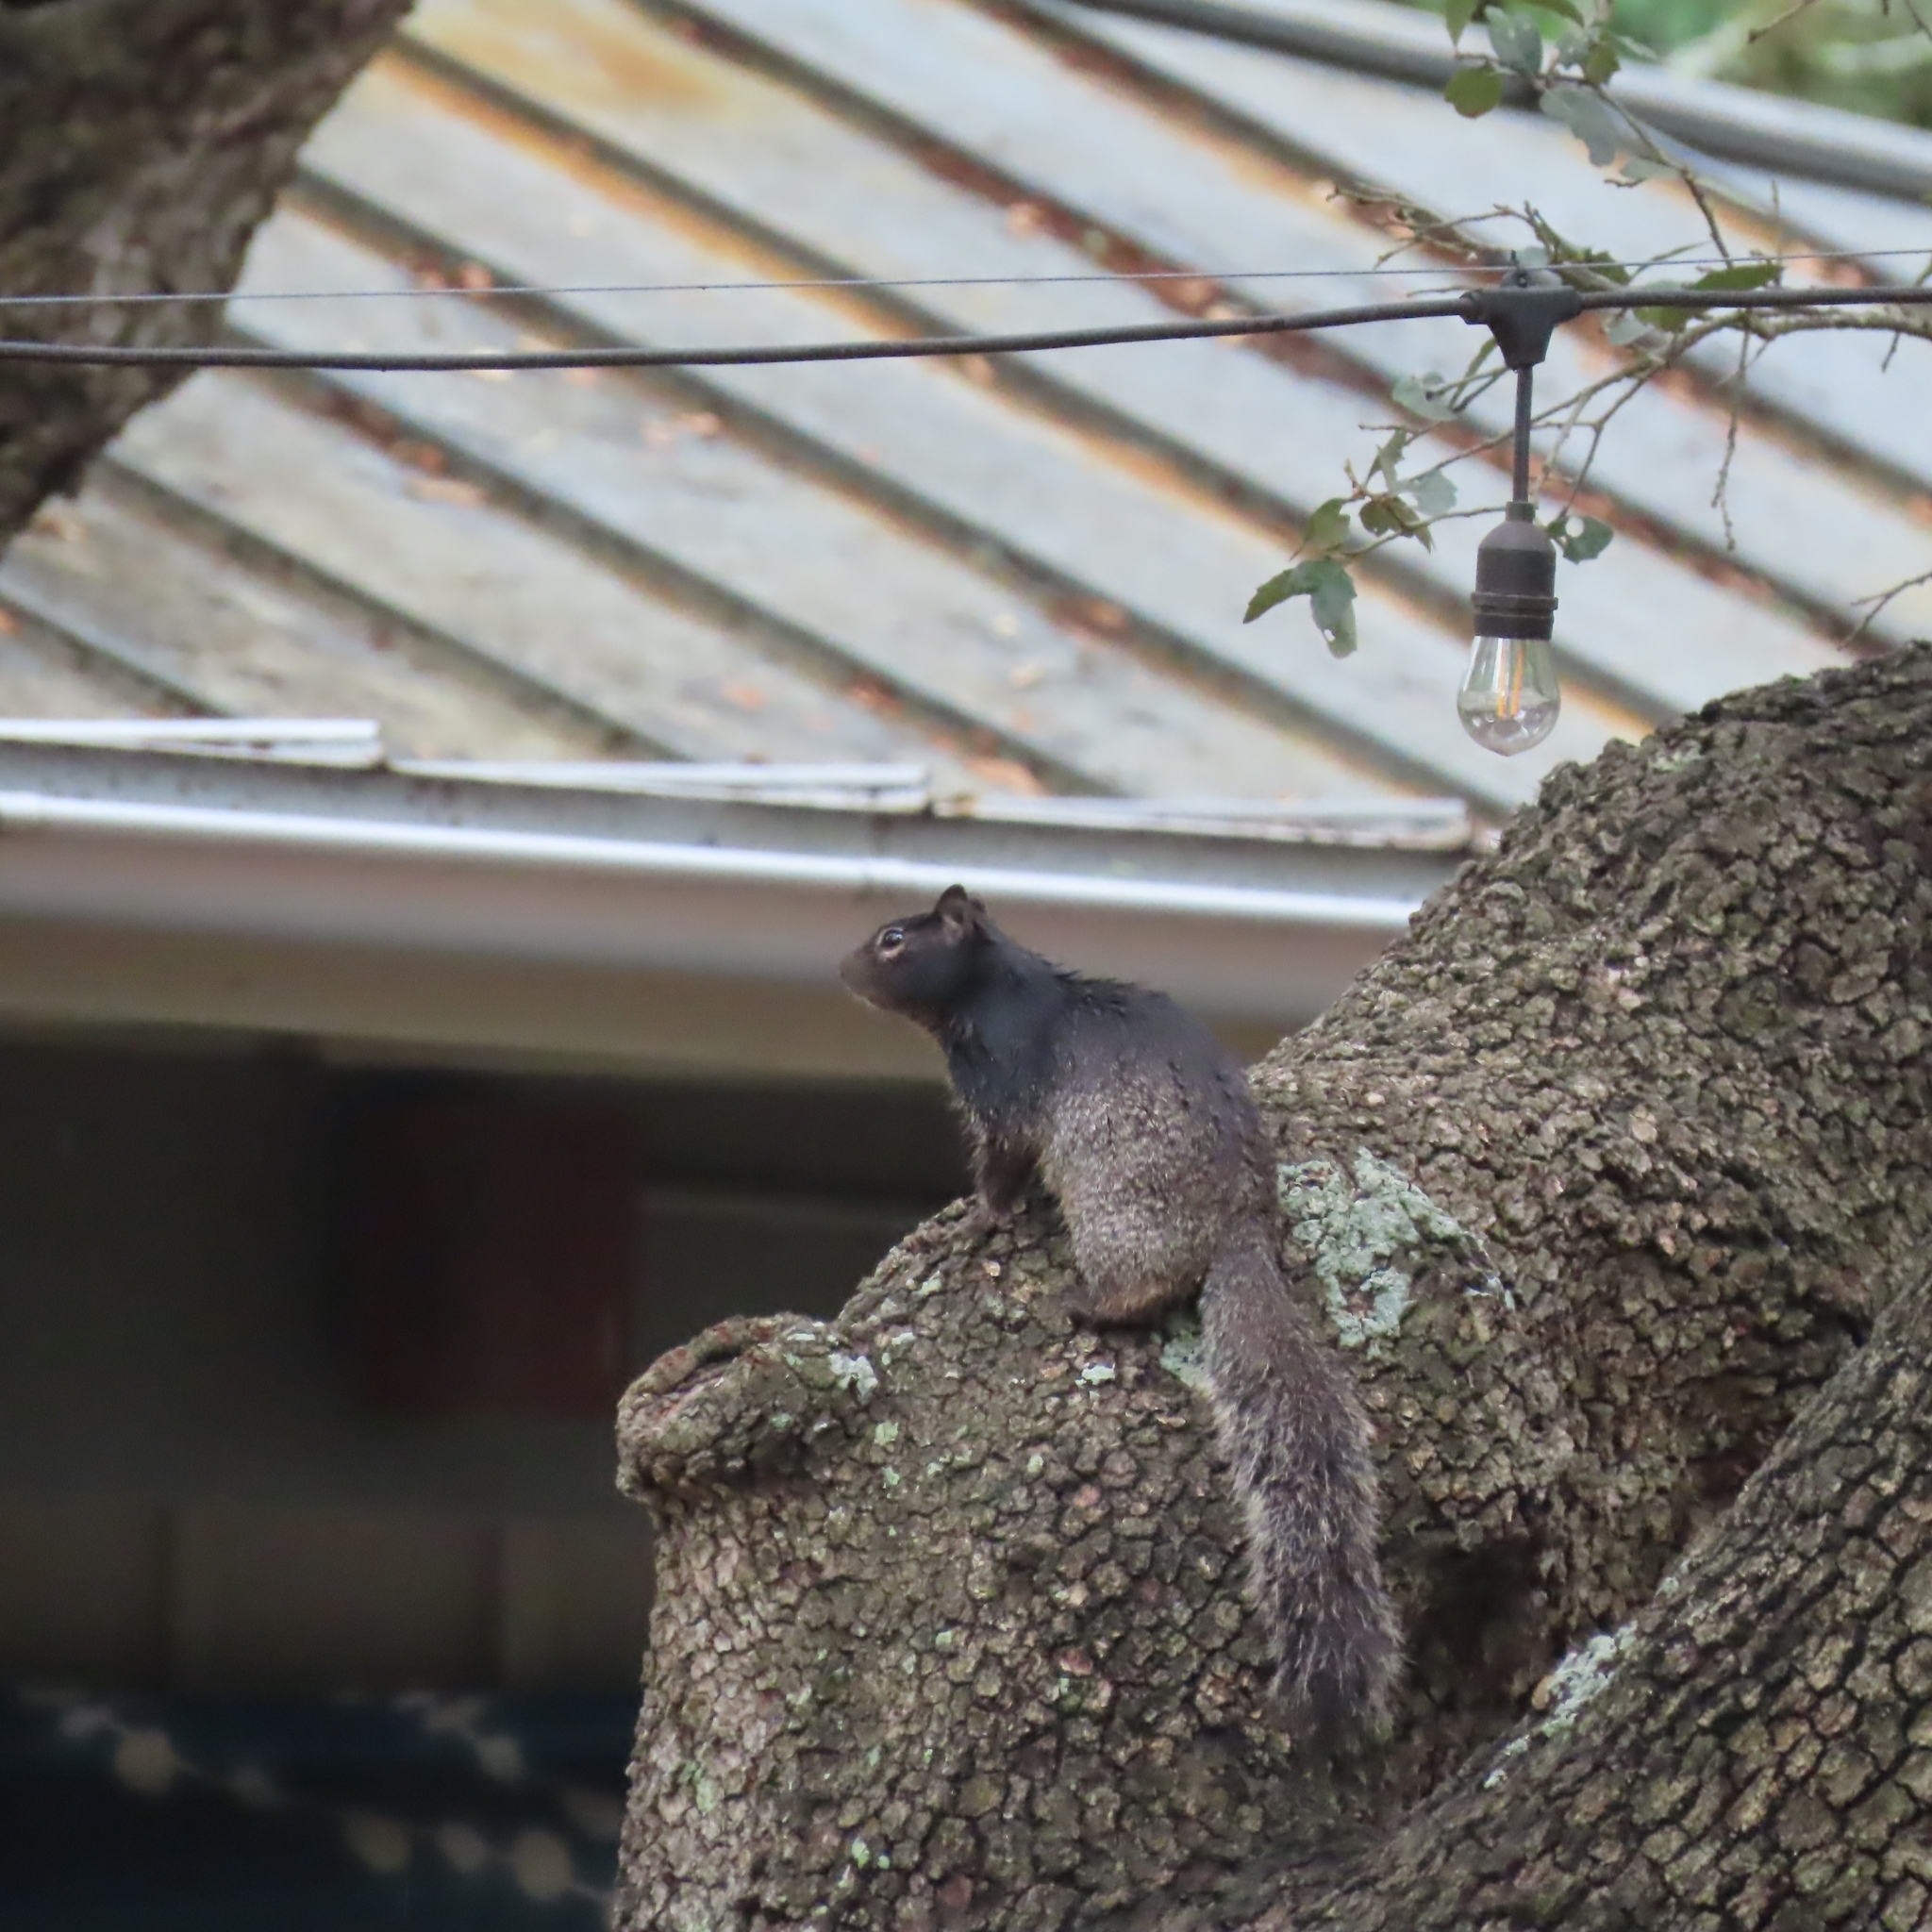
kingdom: Animalia
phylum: Chordata
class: Mammalia
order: Rodentia
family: Sciuridae
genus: Otospermophilus
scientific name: Otospermophilus variegatus
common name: Rock squirrel
